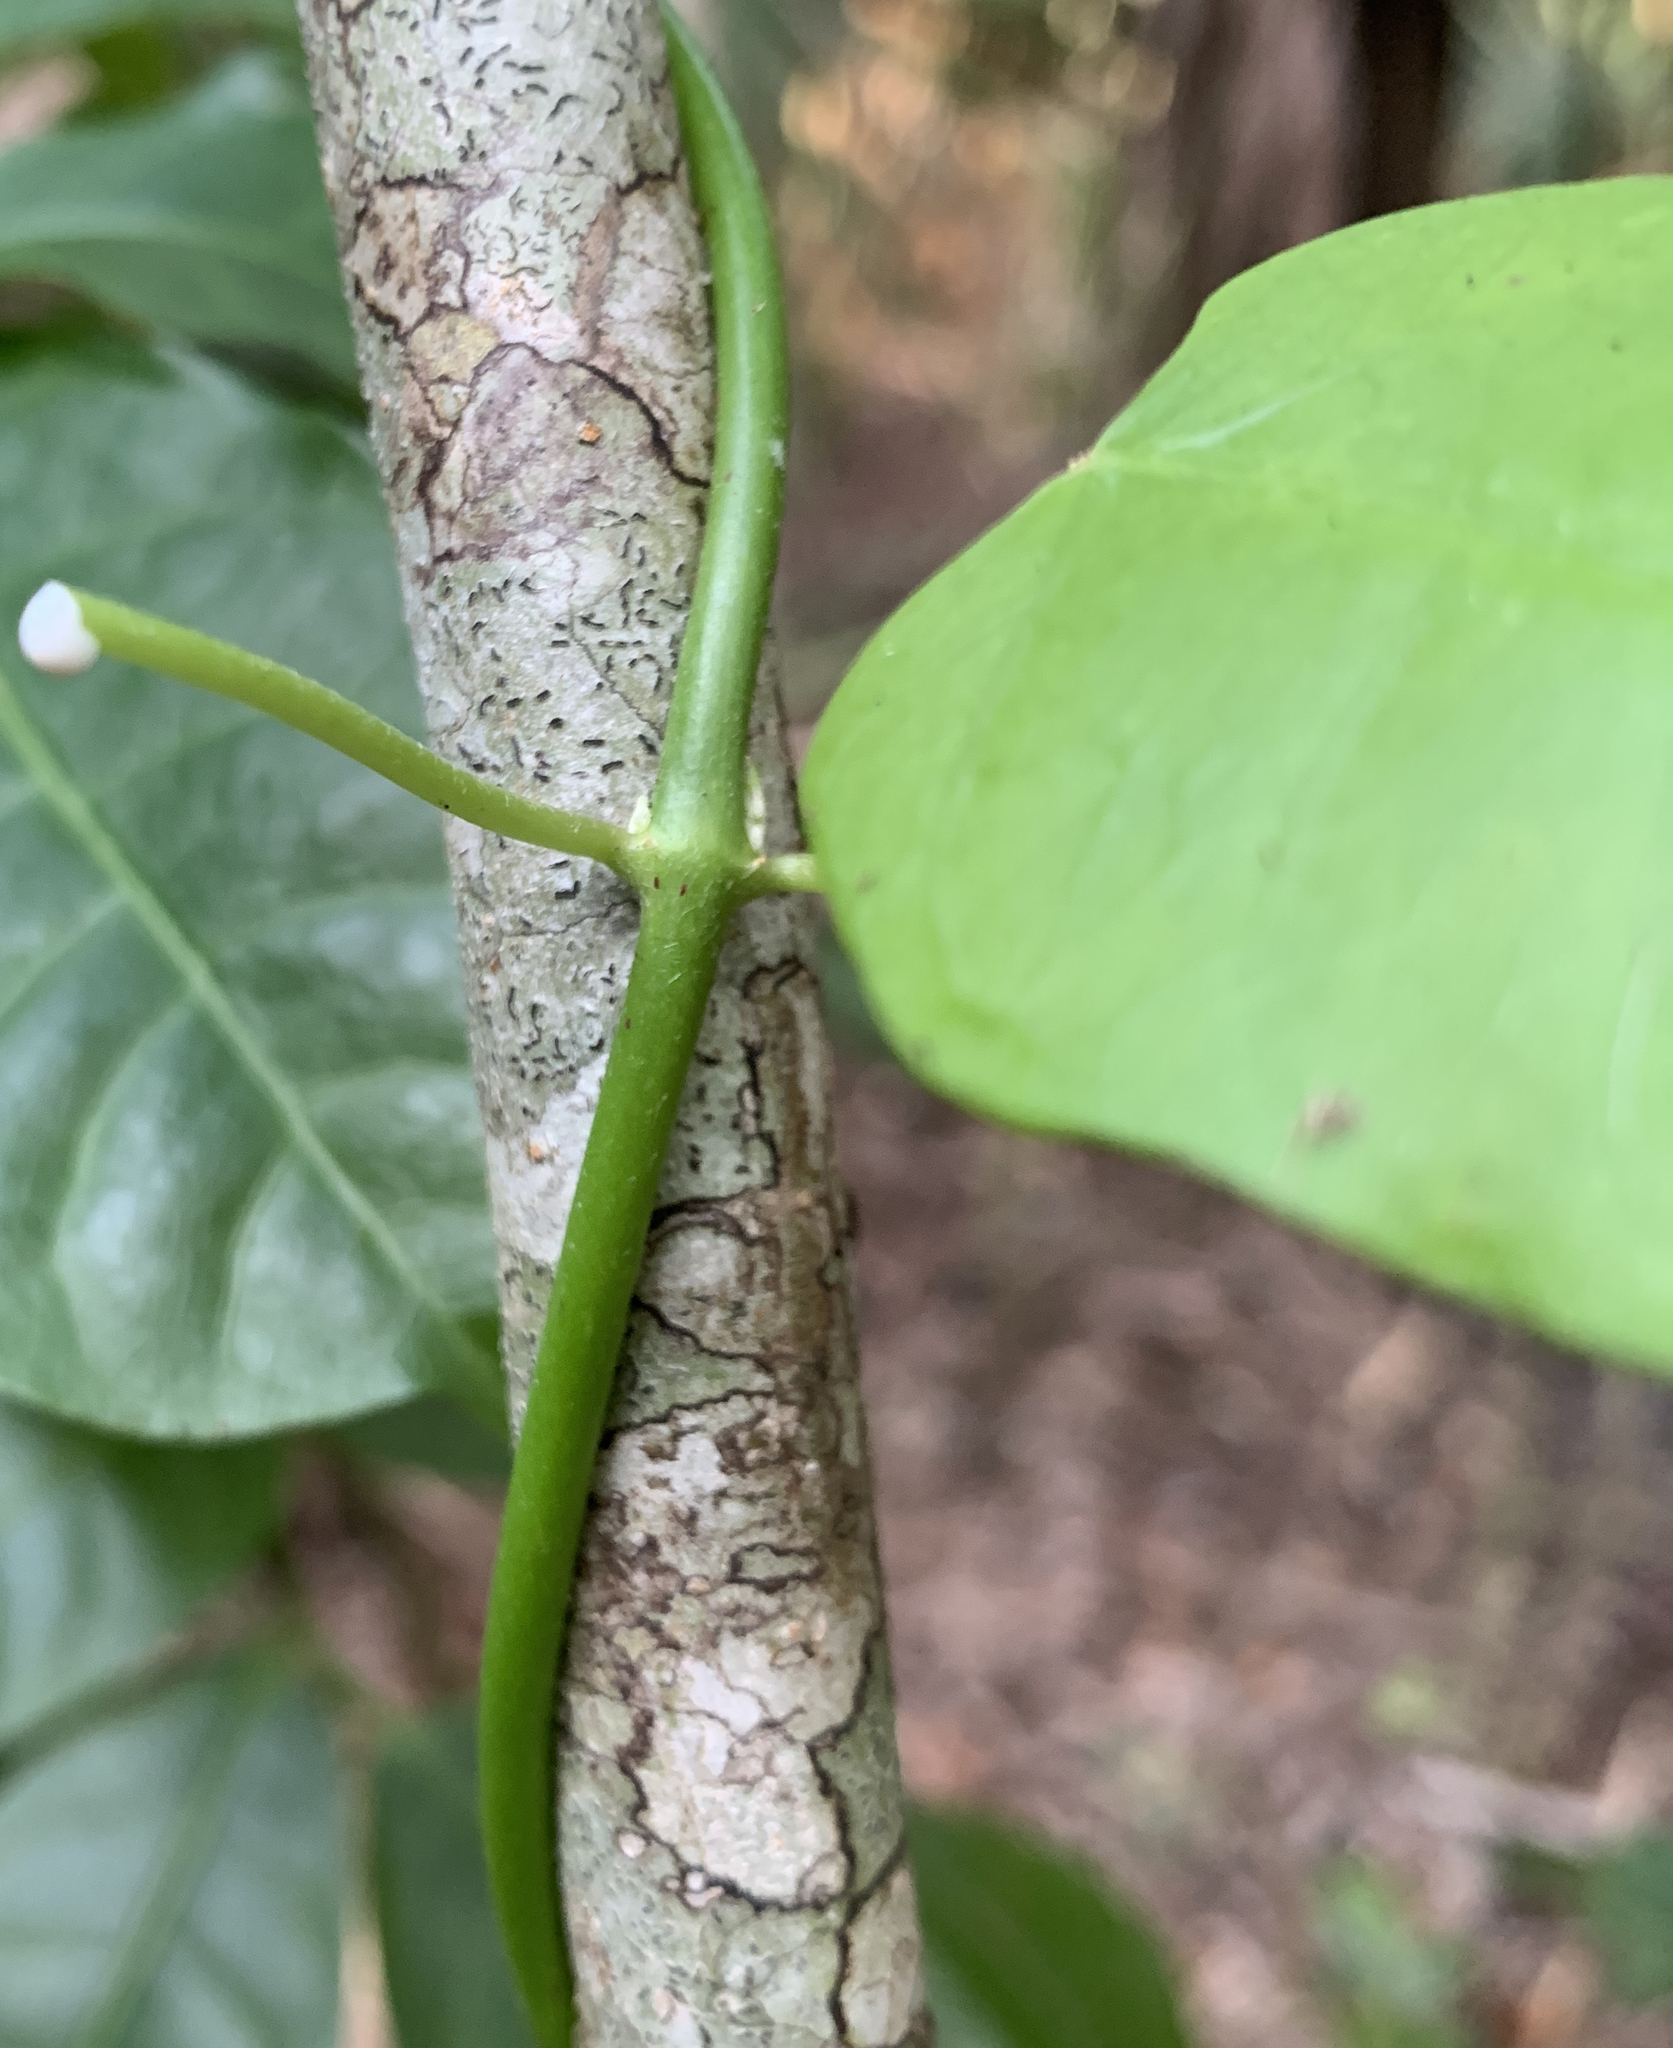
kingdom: Plantae
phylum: Tracheophyta
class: Magnoliopsida
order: Gentianales
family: Apocynaceae
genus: Funastrum
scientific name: Funastrum clausum
